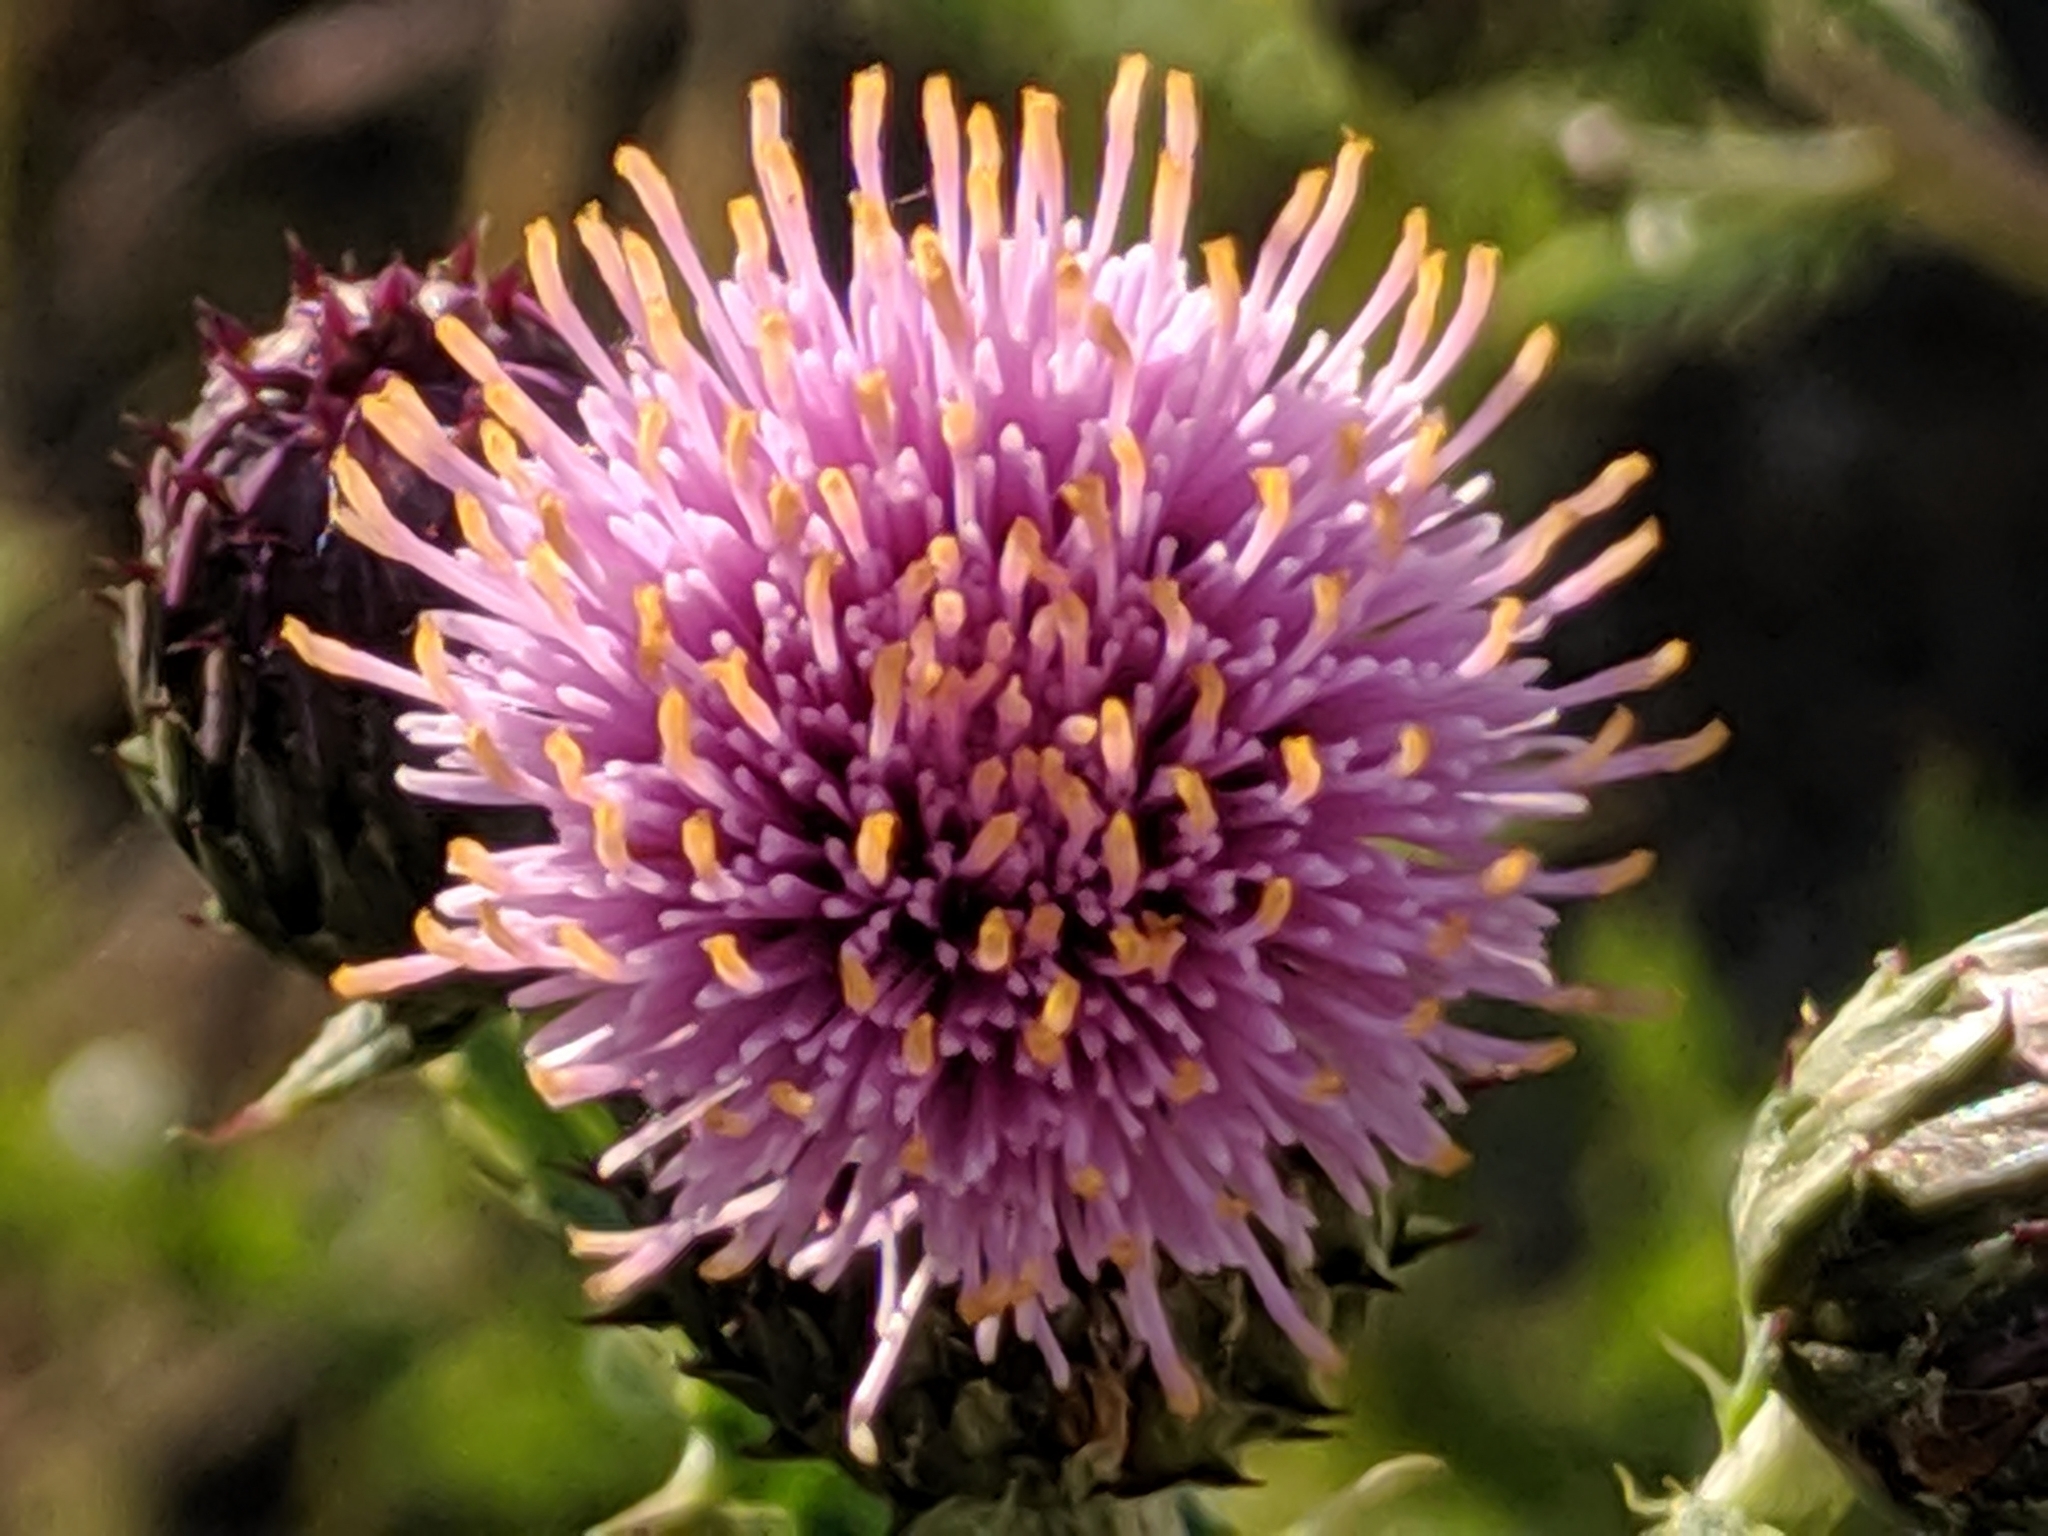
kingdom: Plantae
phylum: Tracheophyta
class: Magnoliopsida
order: Asterales
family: Asteraceae
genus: Cirsium
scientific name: Cirsium arvense
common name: Creeping thistle
